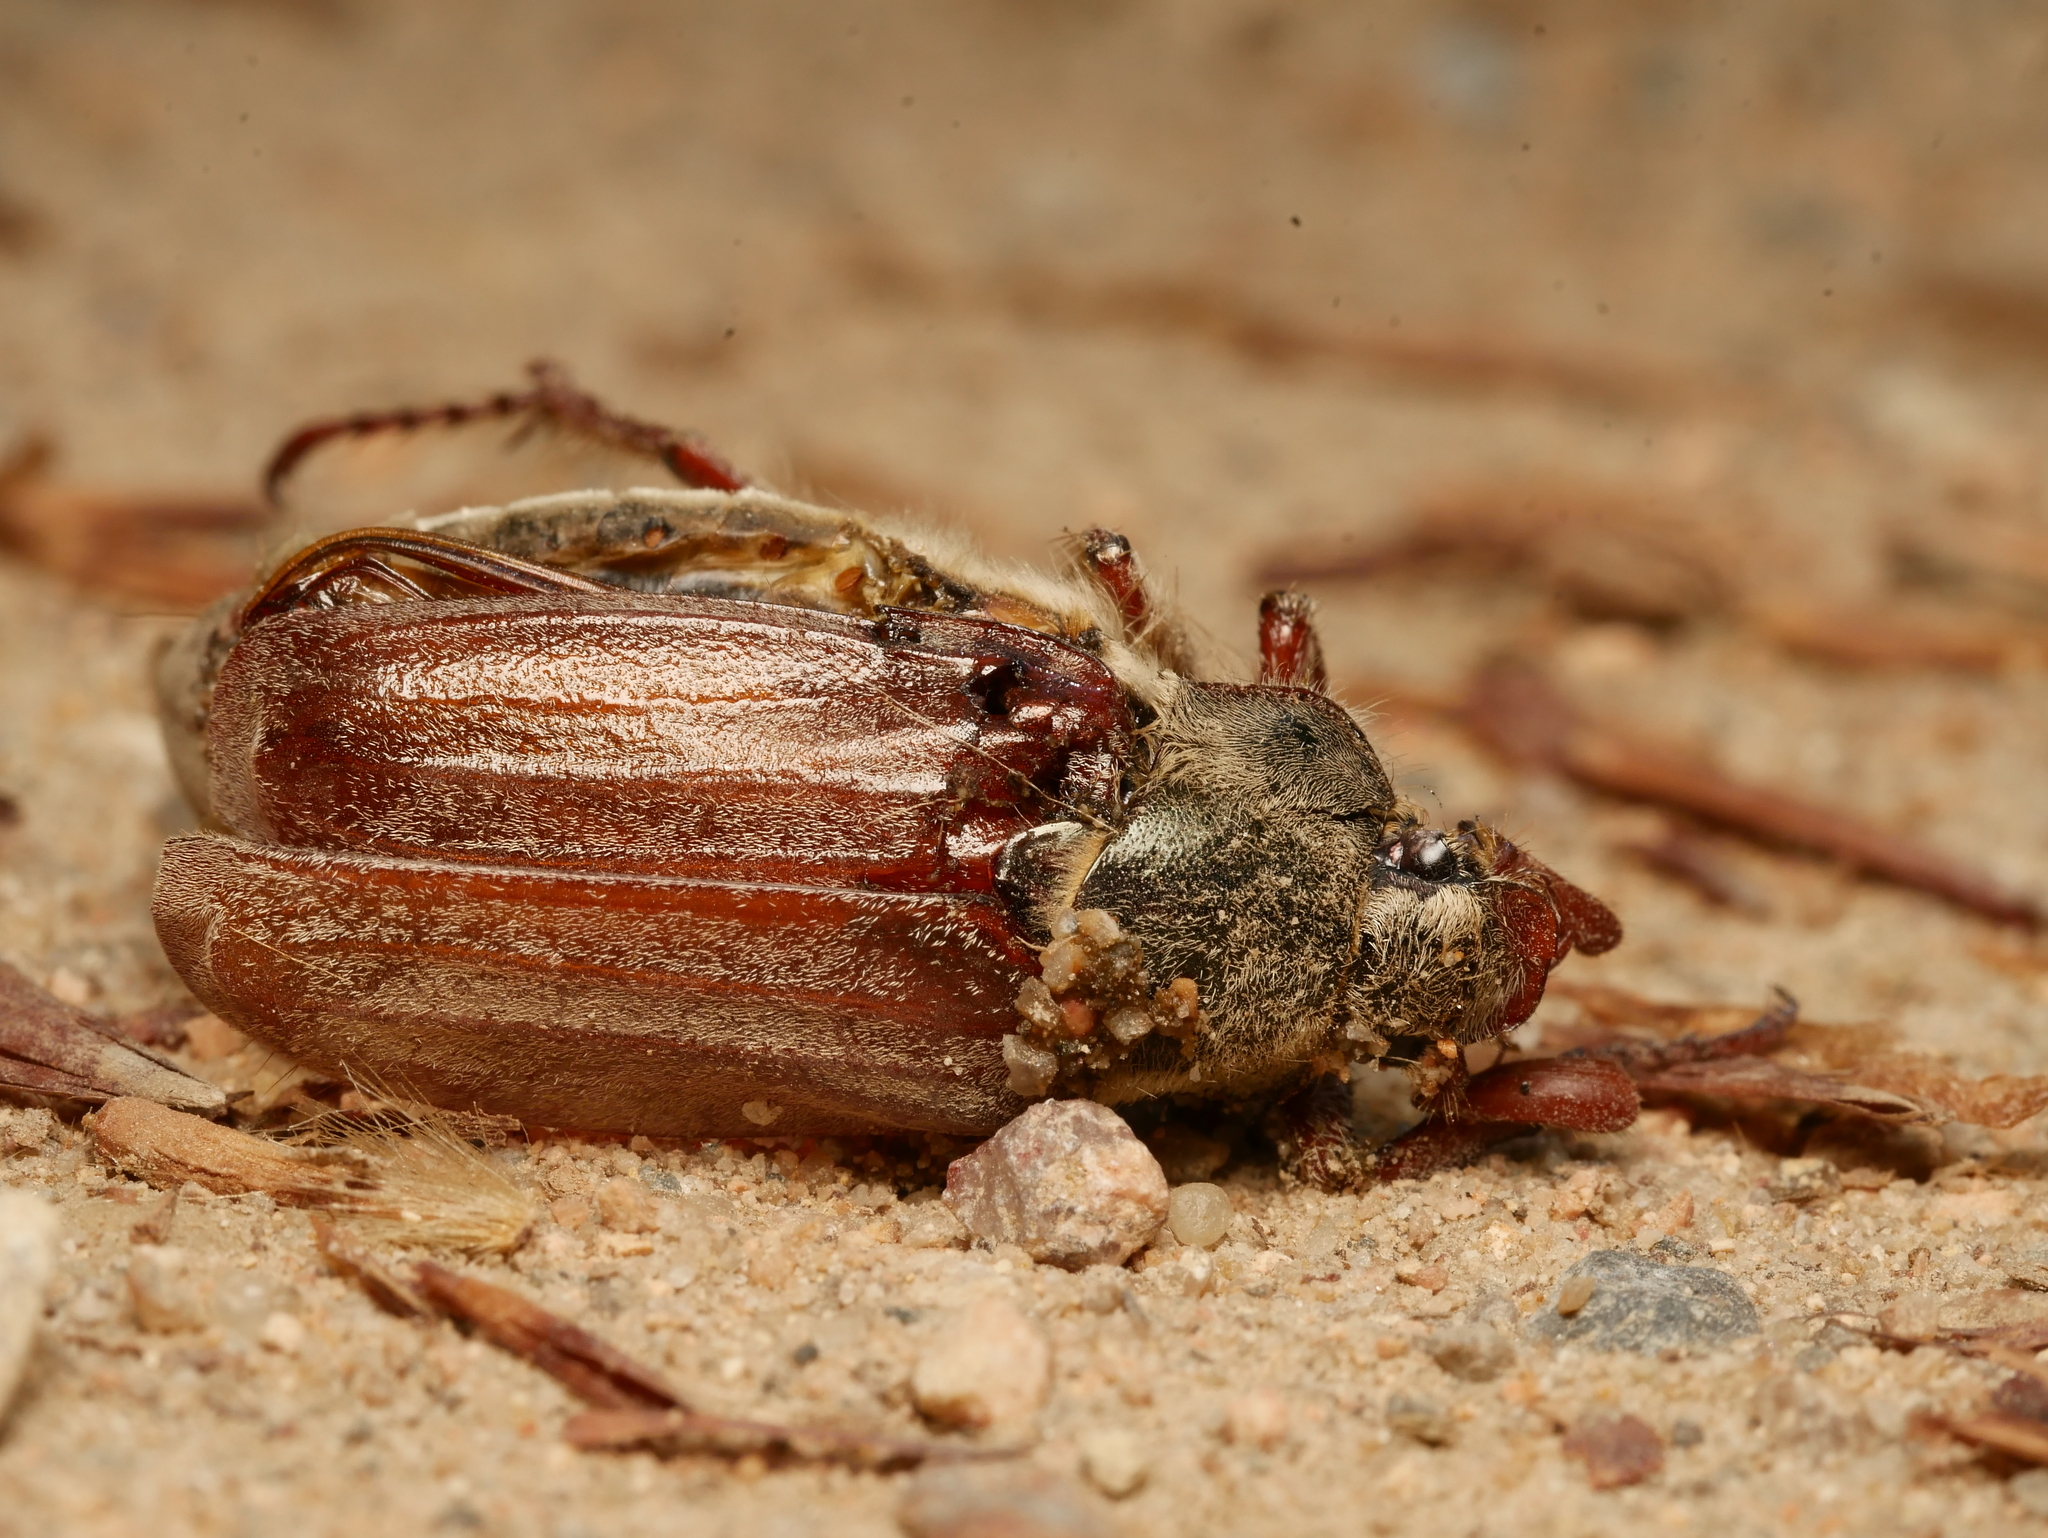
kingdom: Animalia
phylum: Arthropoda
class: Insecta
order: Coleoptera
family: Scarabaeidae
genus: Melolontha
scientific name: Melolontha melolontha
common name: Cockchafer maybeetle
